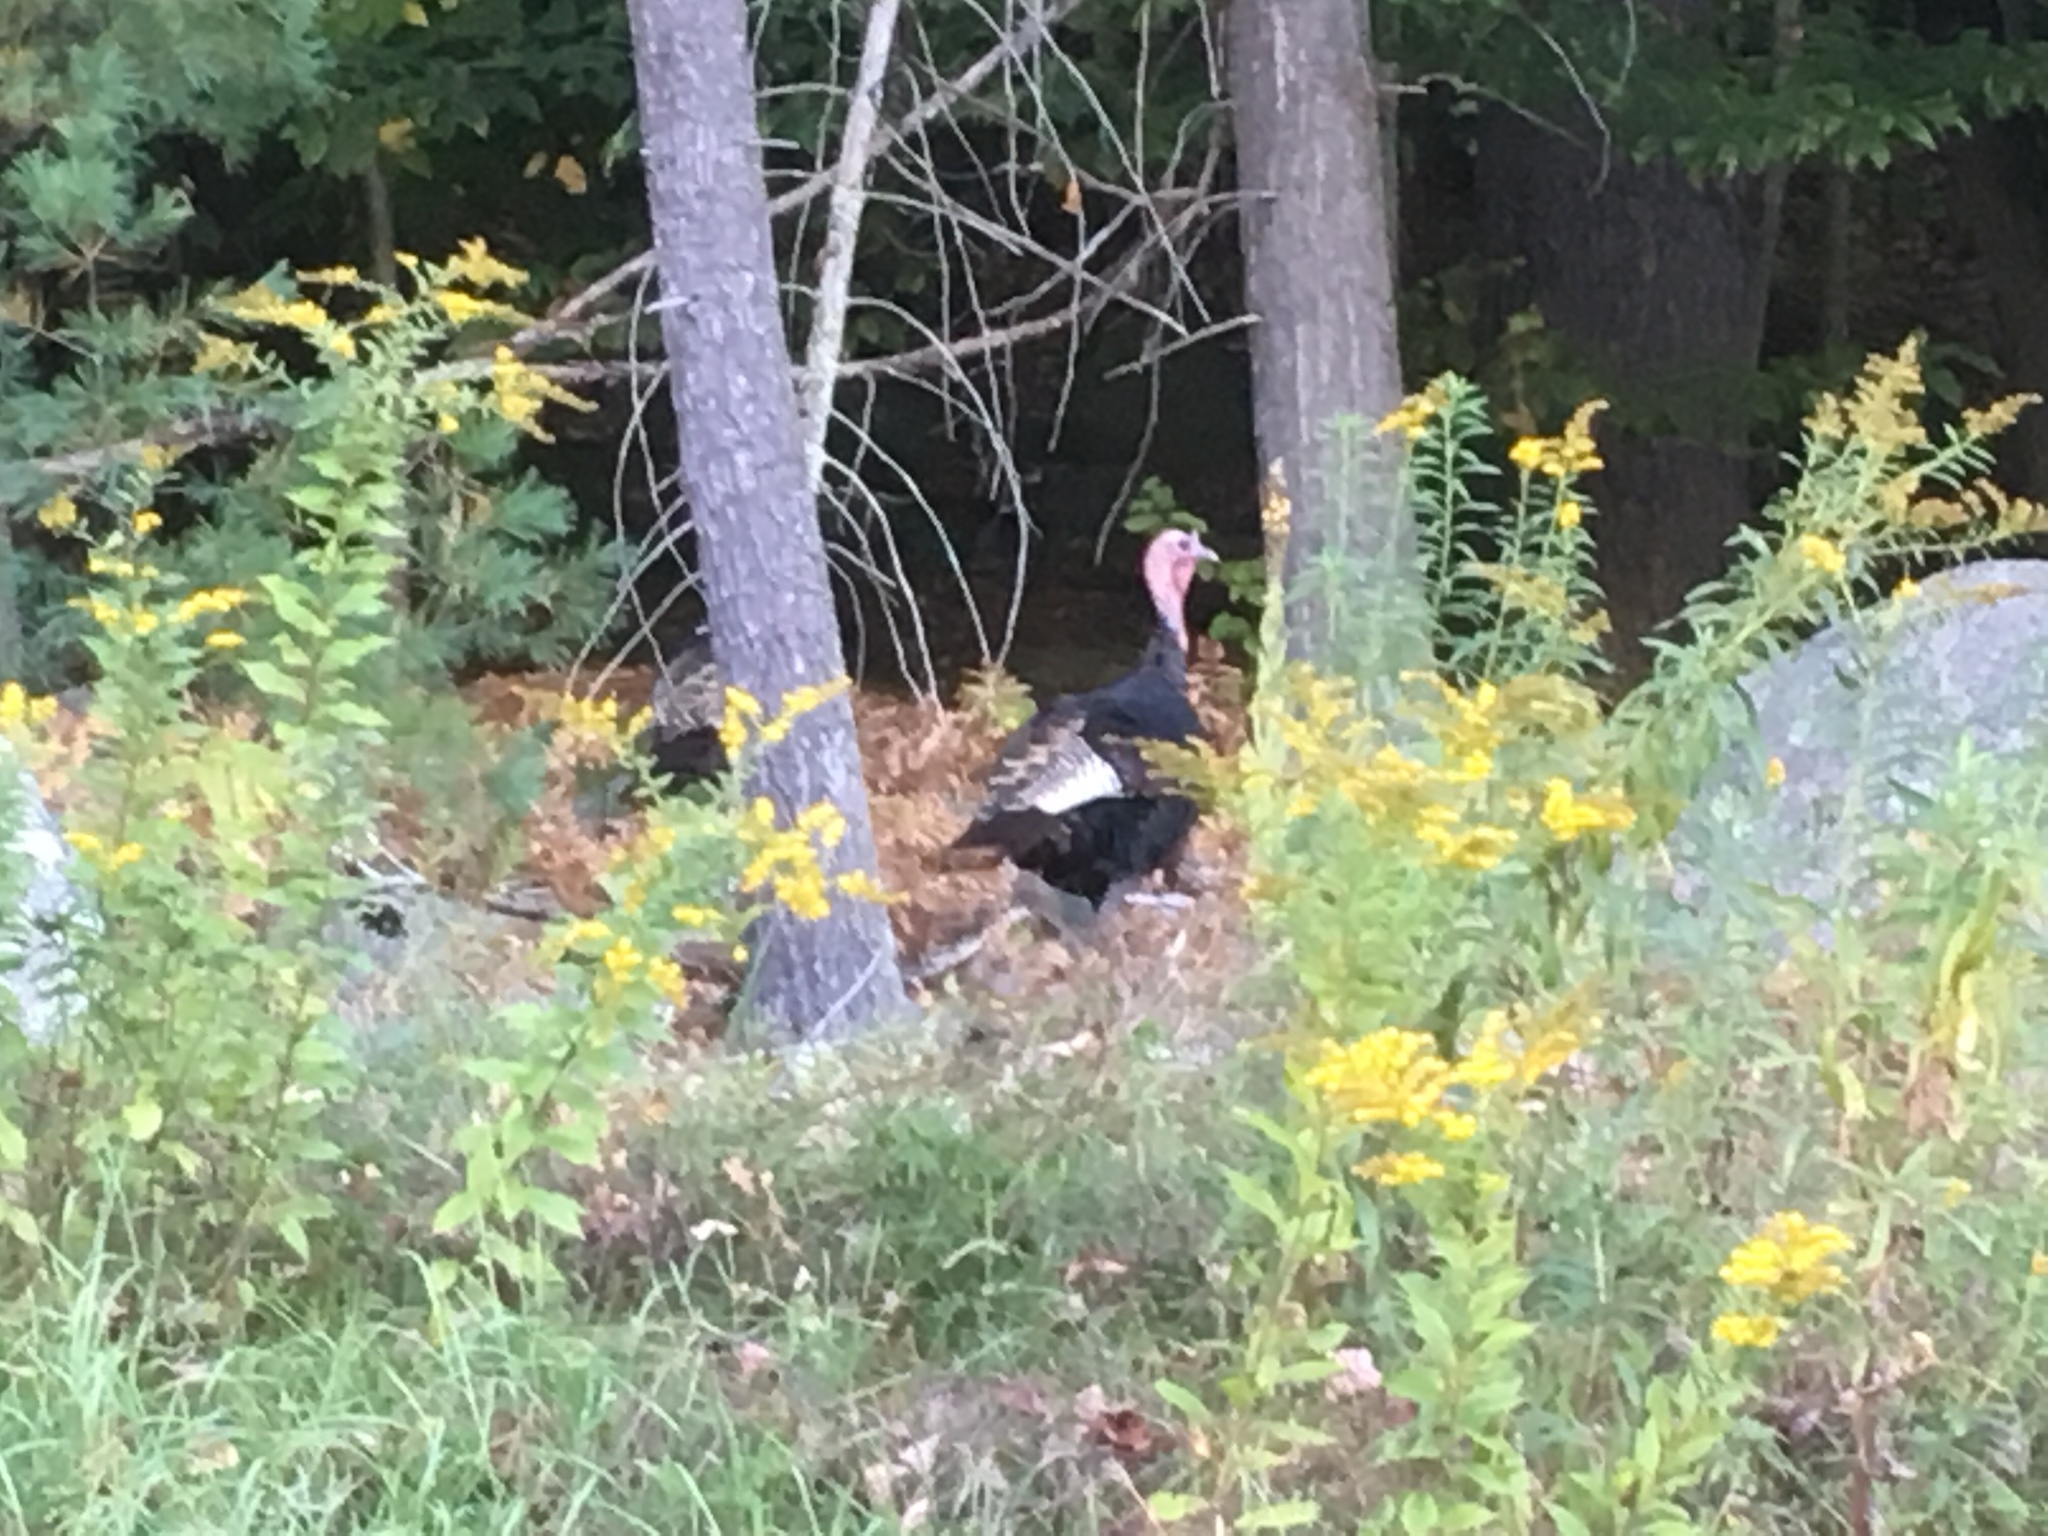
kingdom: Animalia
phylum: Chordata
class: Aves
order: Galliformes
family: Phasianidae
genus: Meleagris
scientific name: Meleagris gallopavo
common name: Wild turkey
